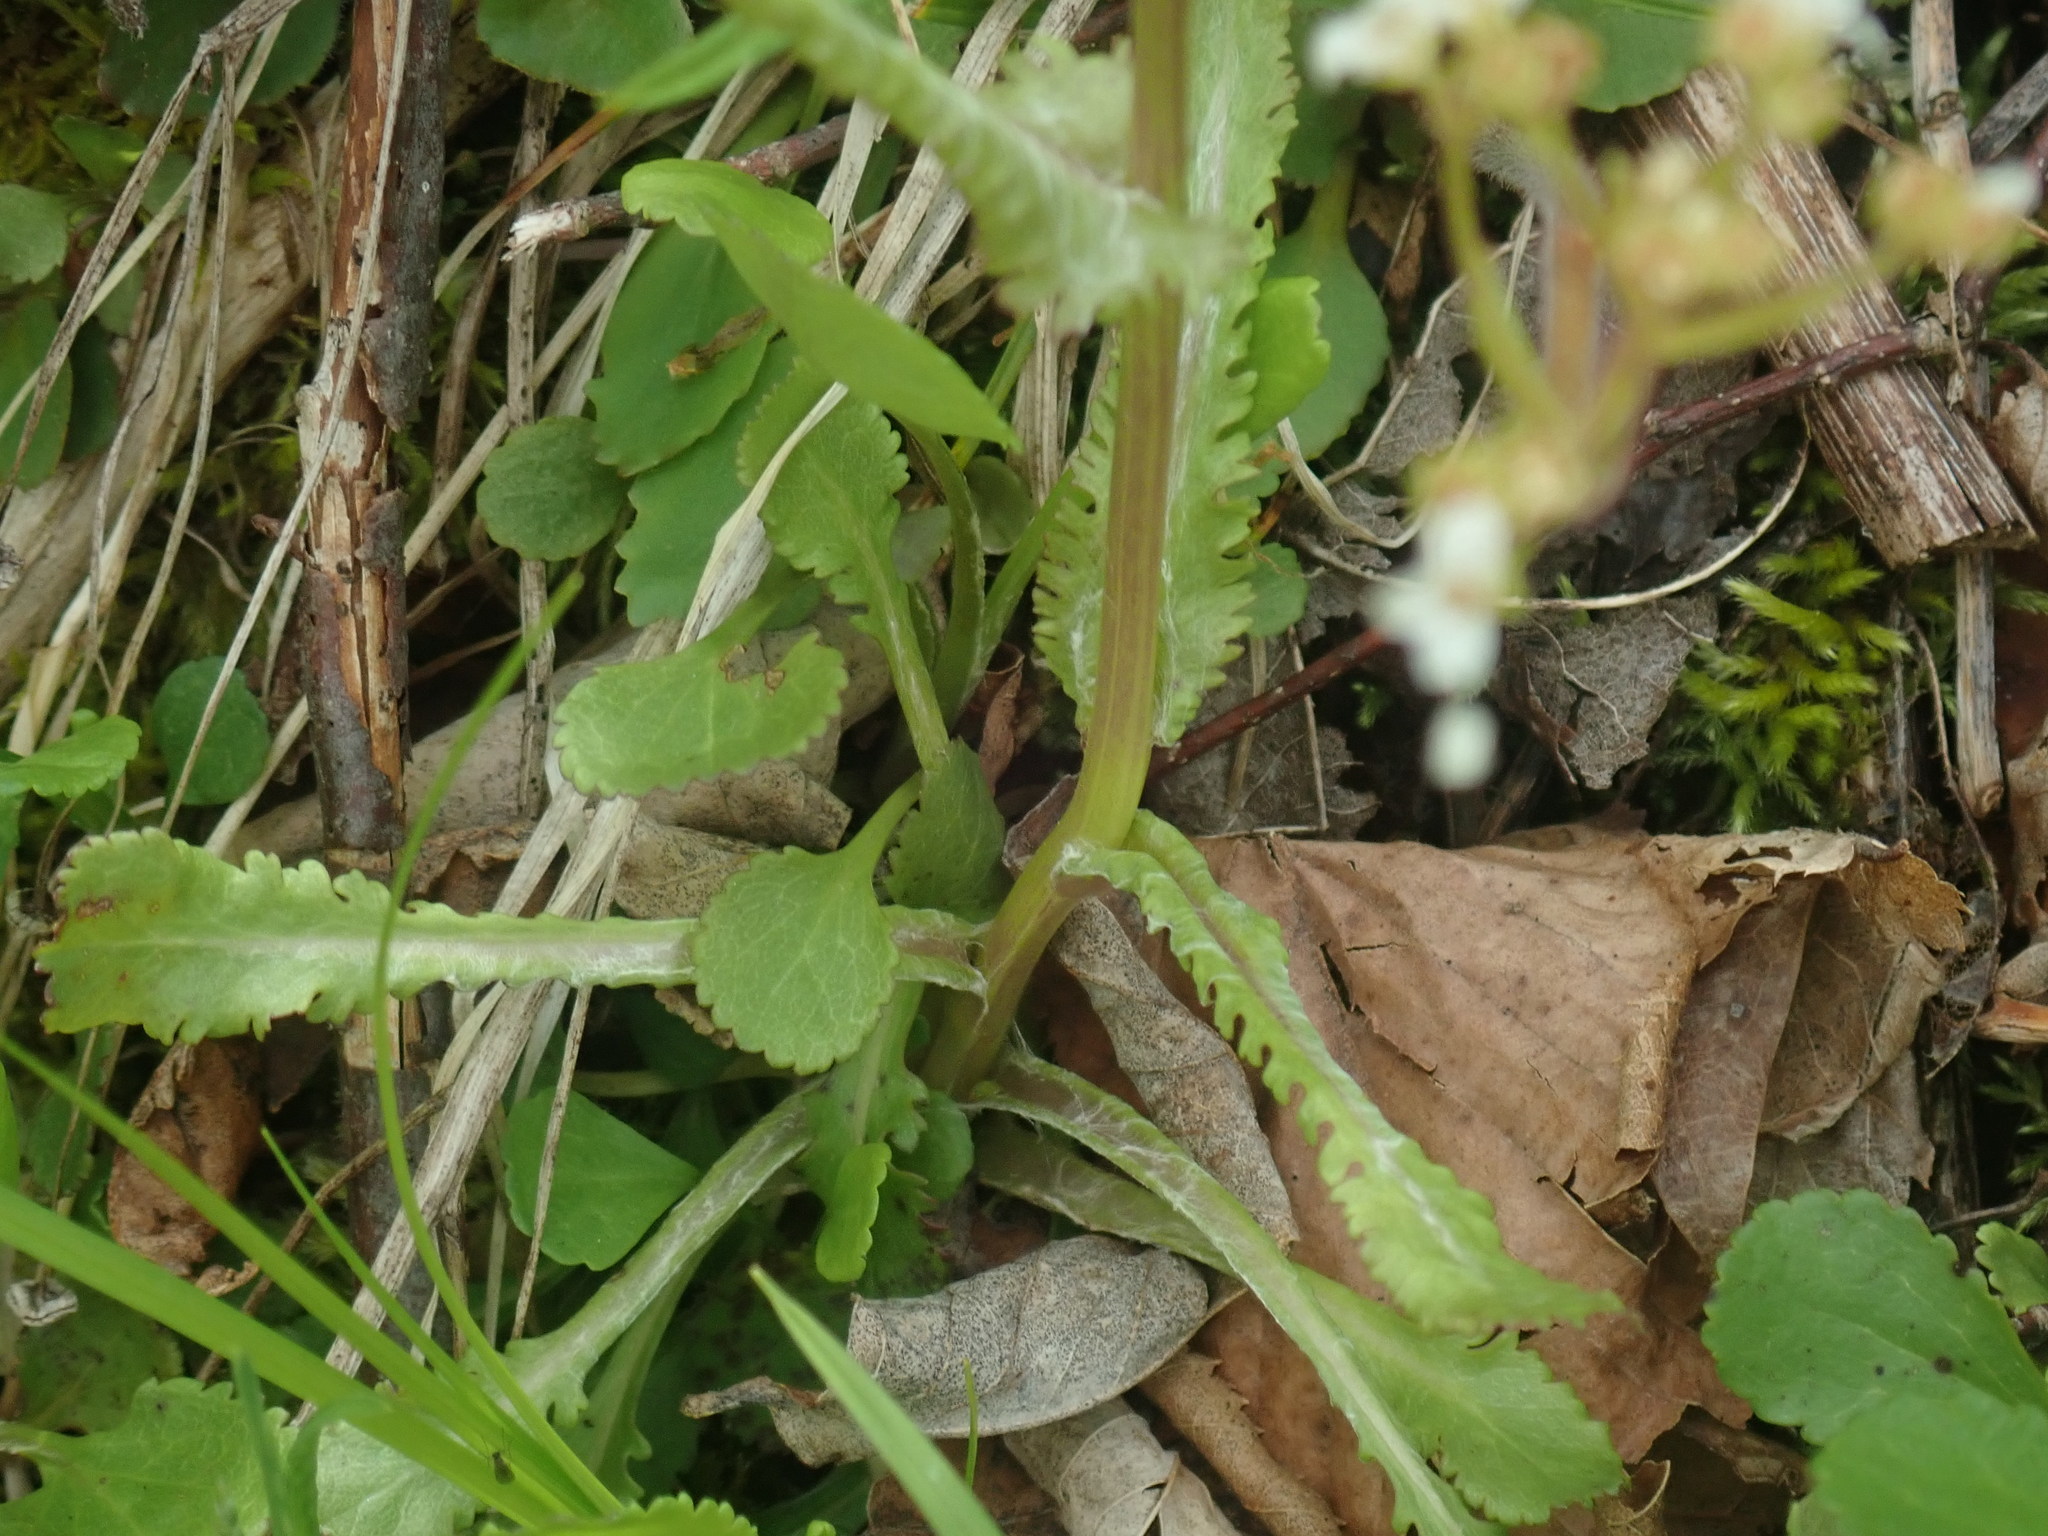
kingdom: Plantae
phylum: Tracheophyta
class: Magnoliopsida
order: Asterales
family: Asteraceae
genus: Packera
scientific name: Packera obovata
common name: Round-leaf ragwort
